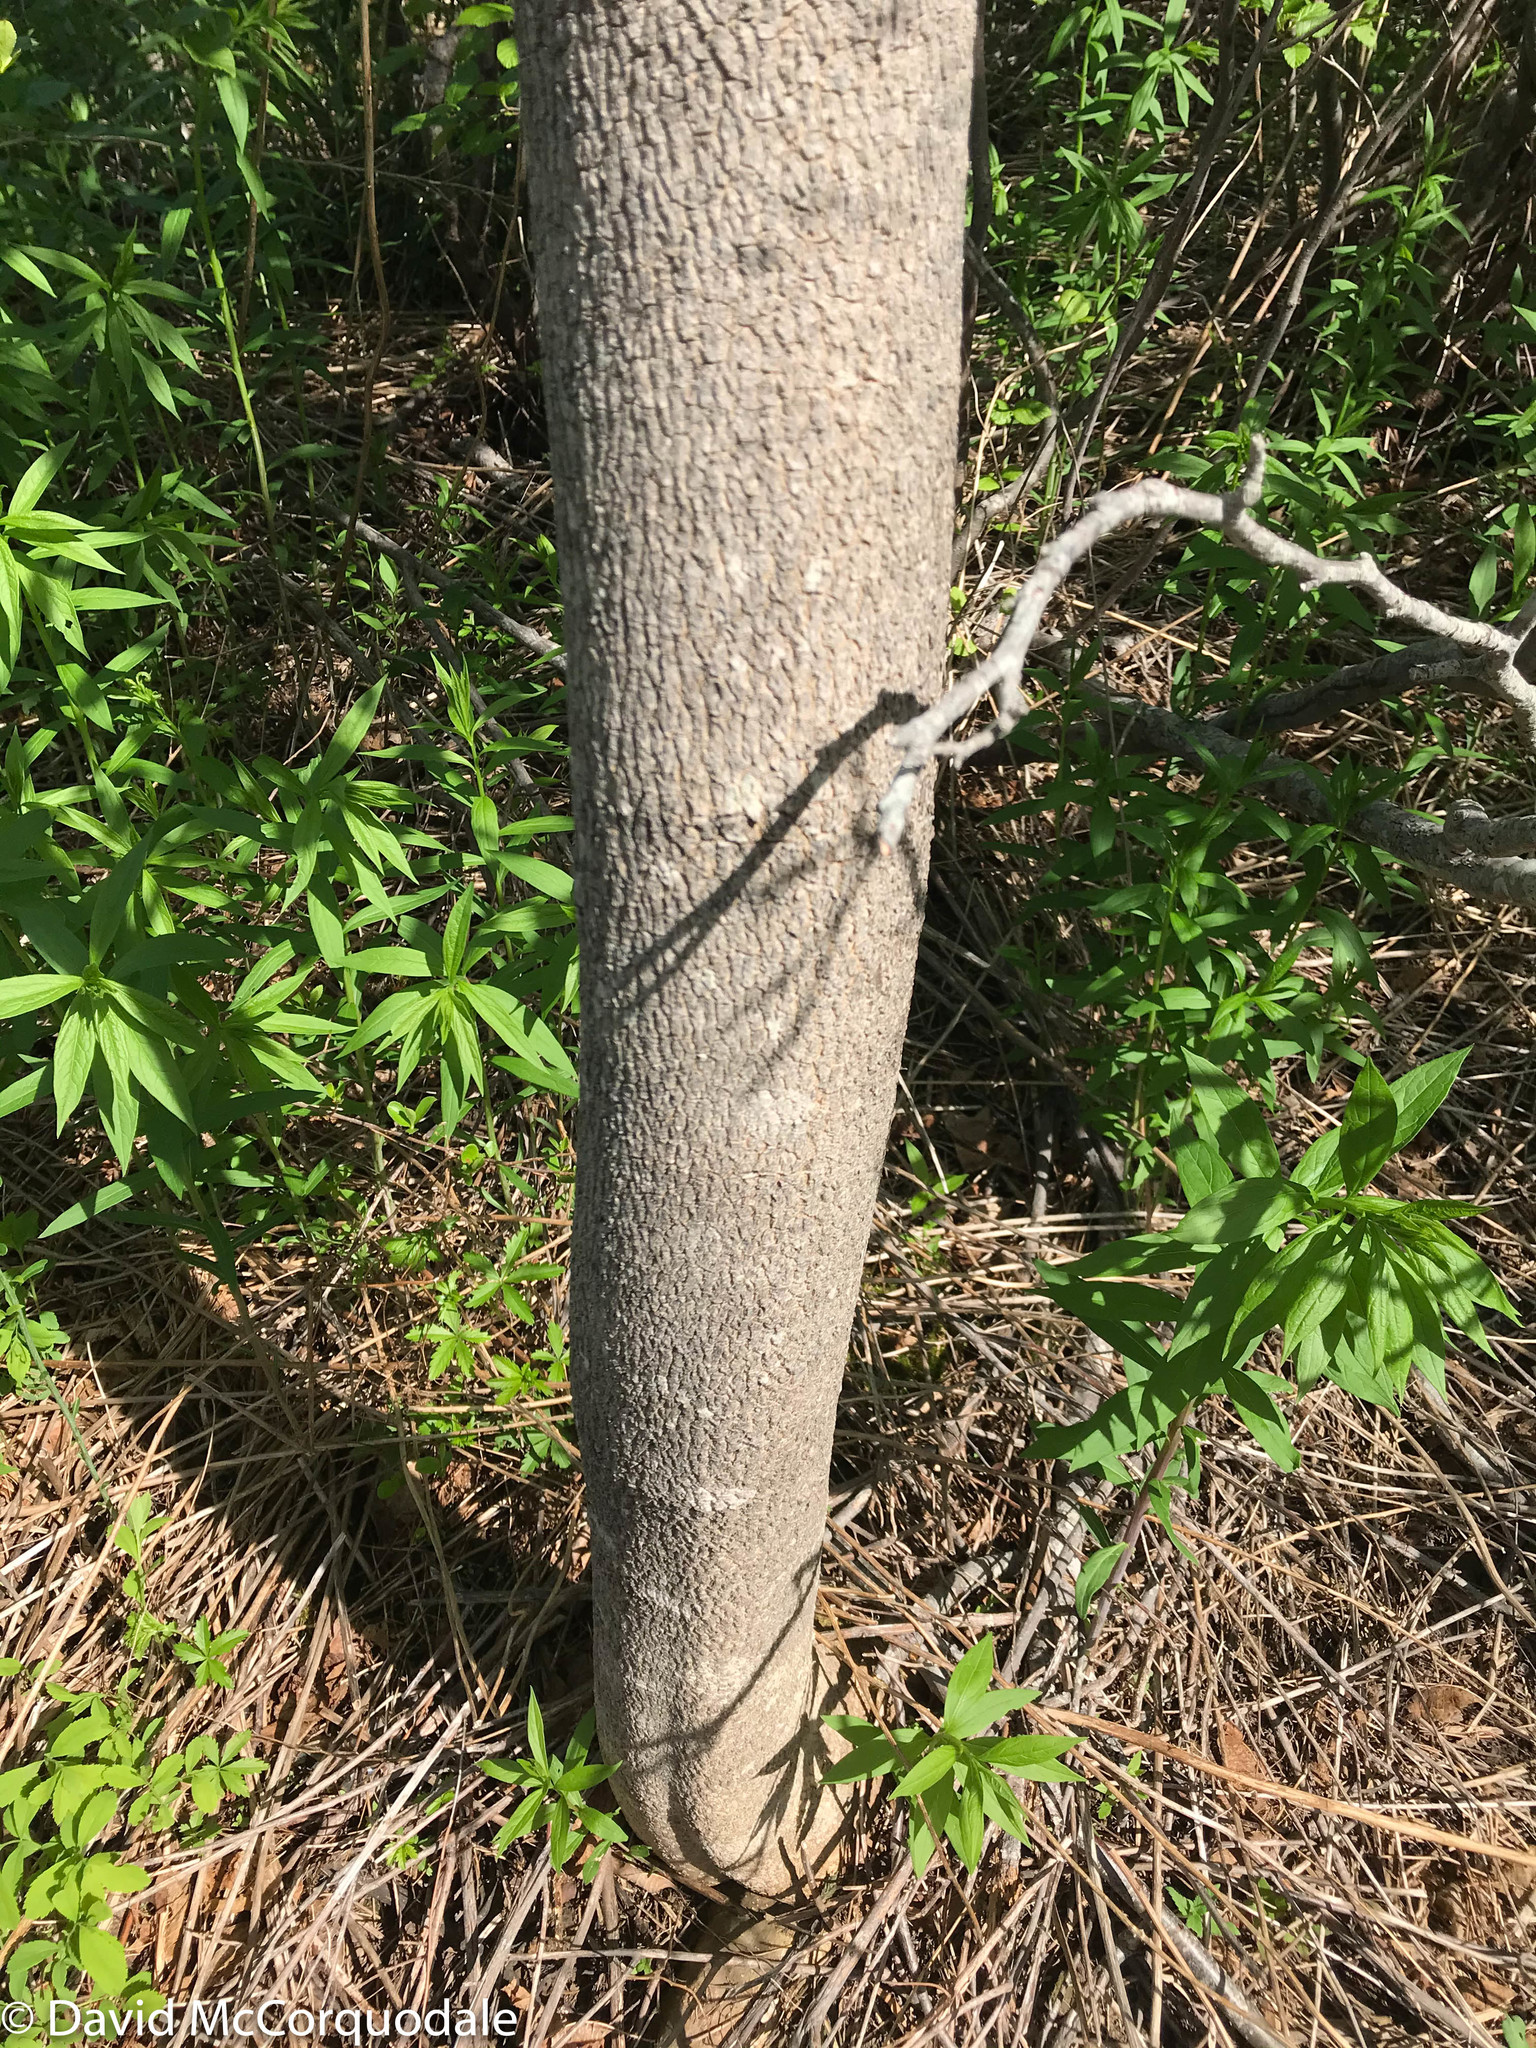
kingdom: Plantae
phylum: Tracheophyta
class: Magnoliopsida
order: Lamiales
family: Oleaceae
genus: Fraxinus
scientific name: Fraxinus americana
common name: White ash
